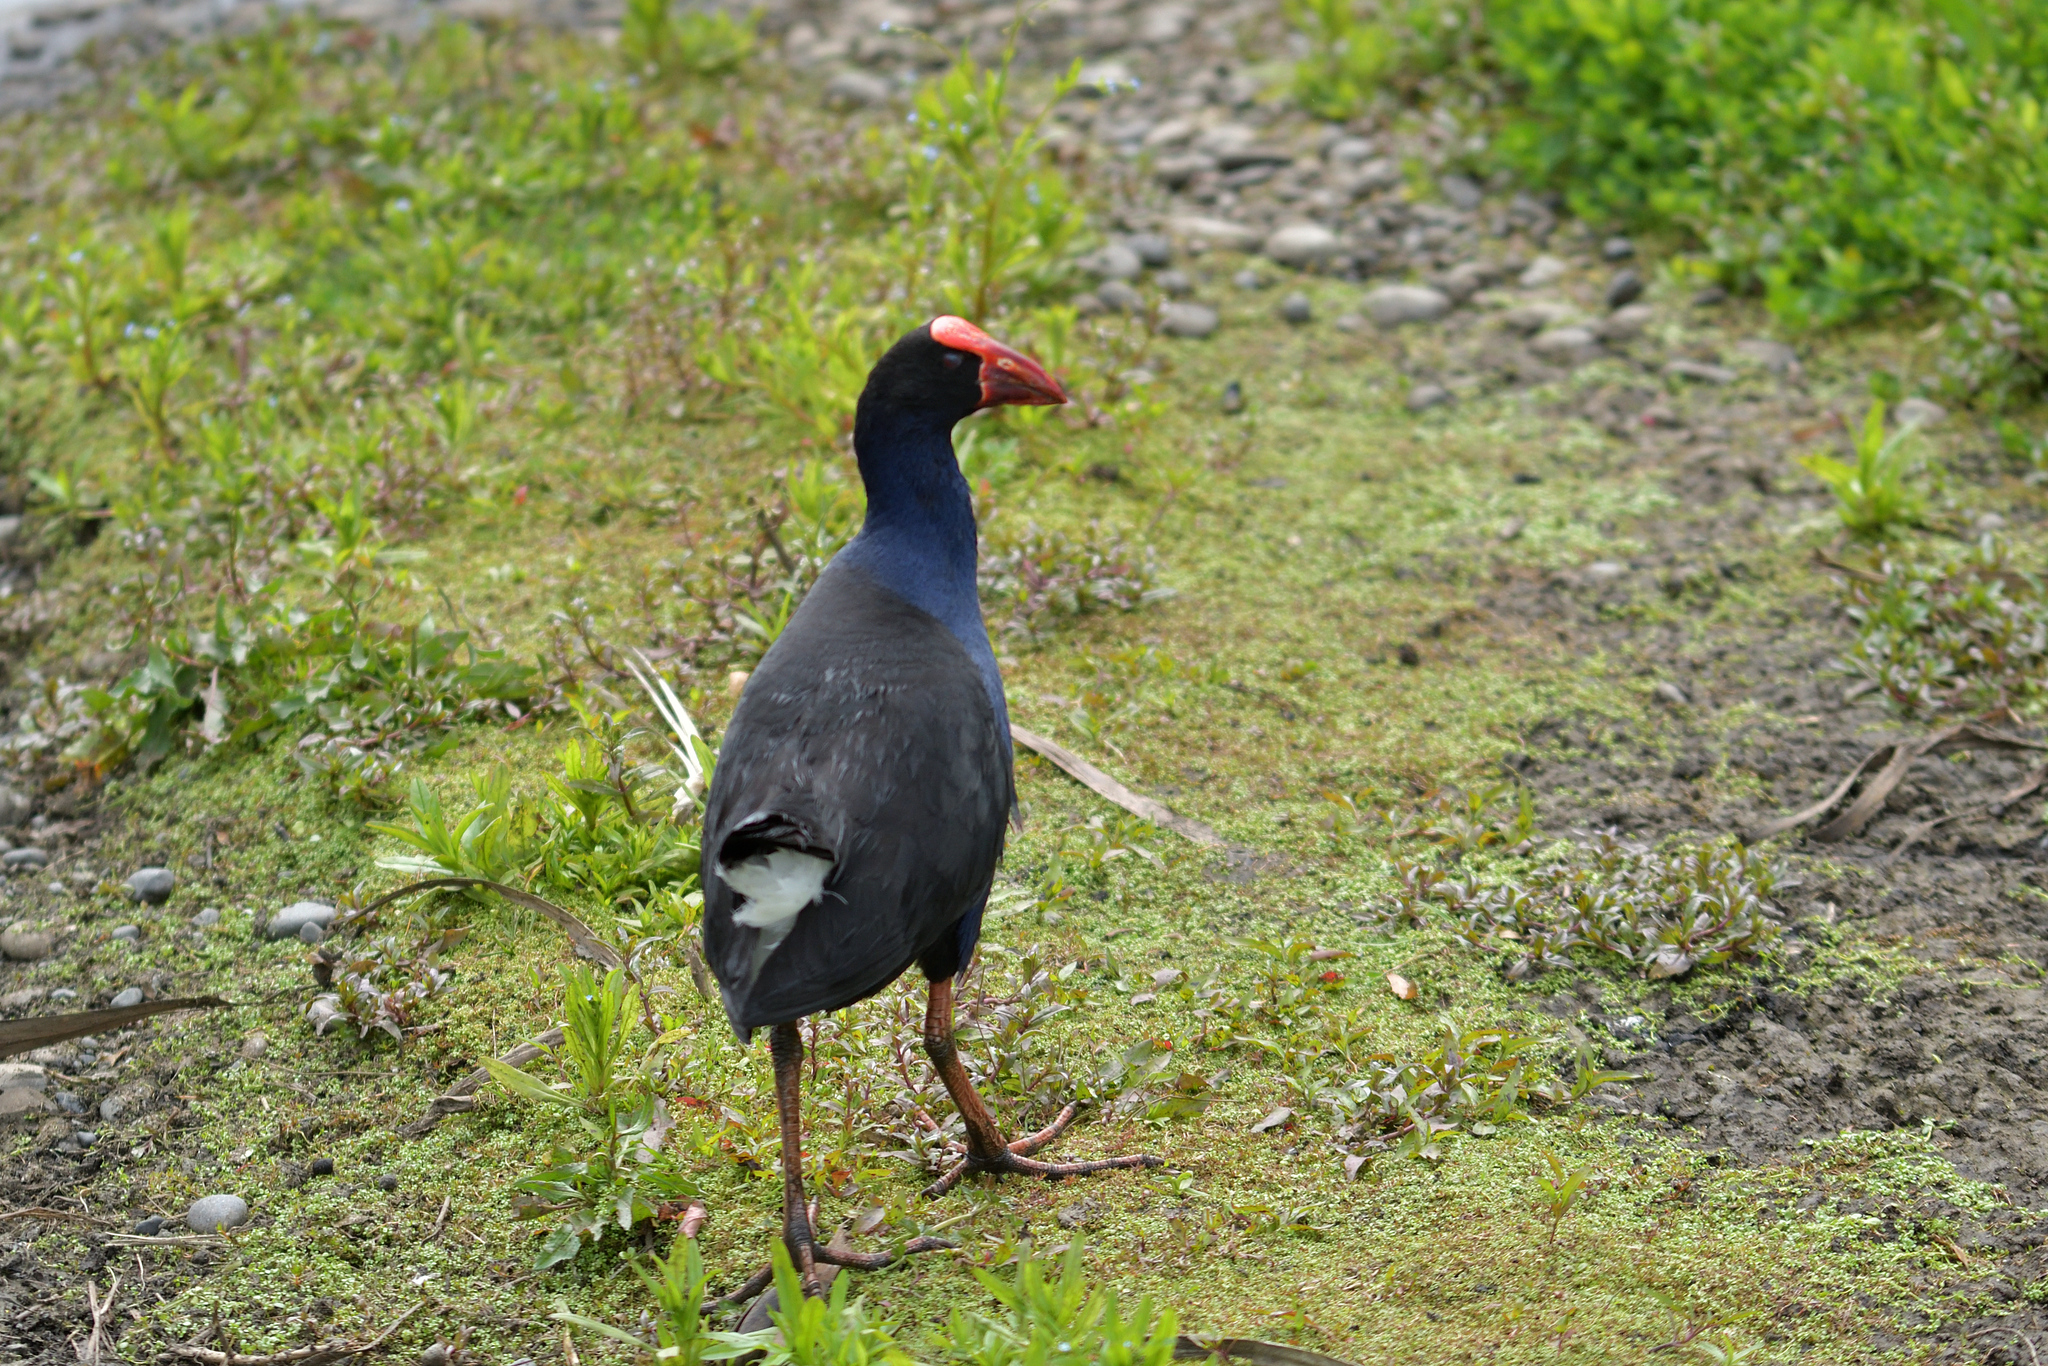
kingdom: Animalia
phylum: Chordata
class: Aves
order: Gruiformes
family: Rallidae
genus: Porphyrio
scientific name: Porphyrio melanotus
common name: Australasian swamphen
